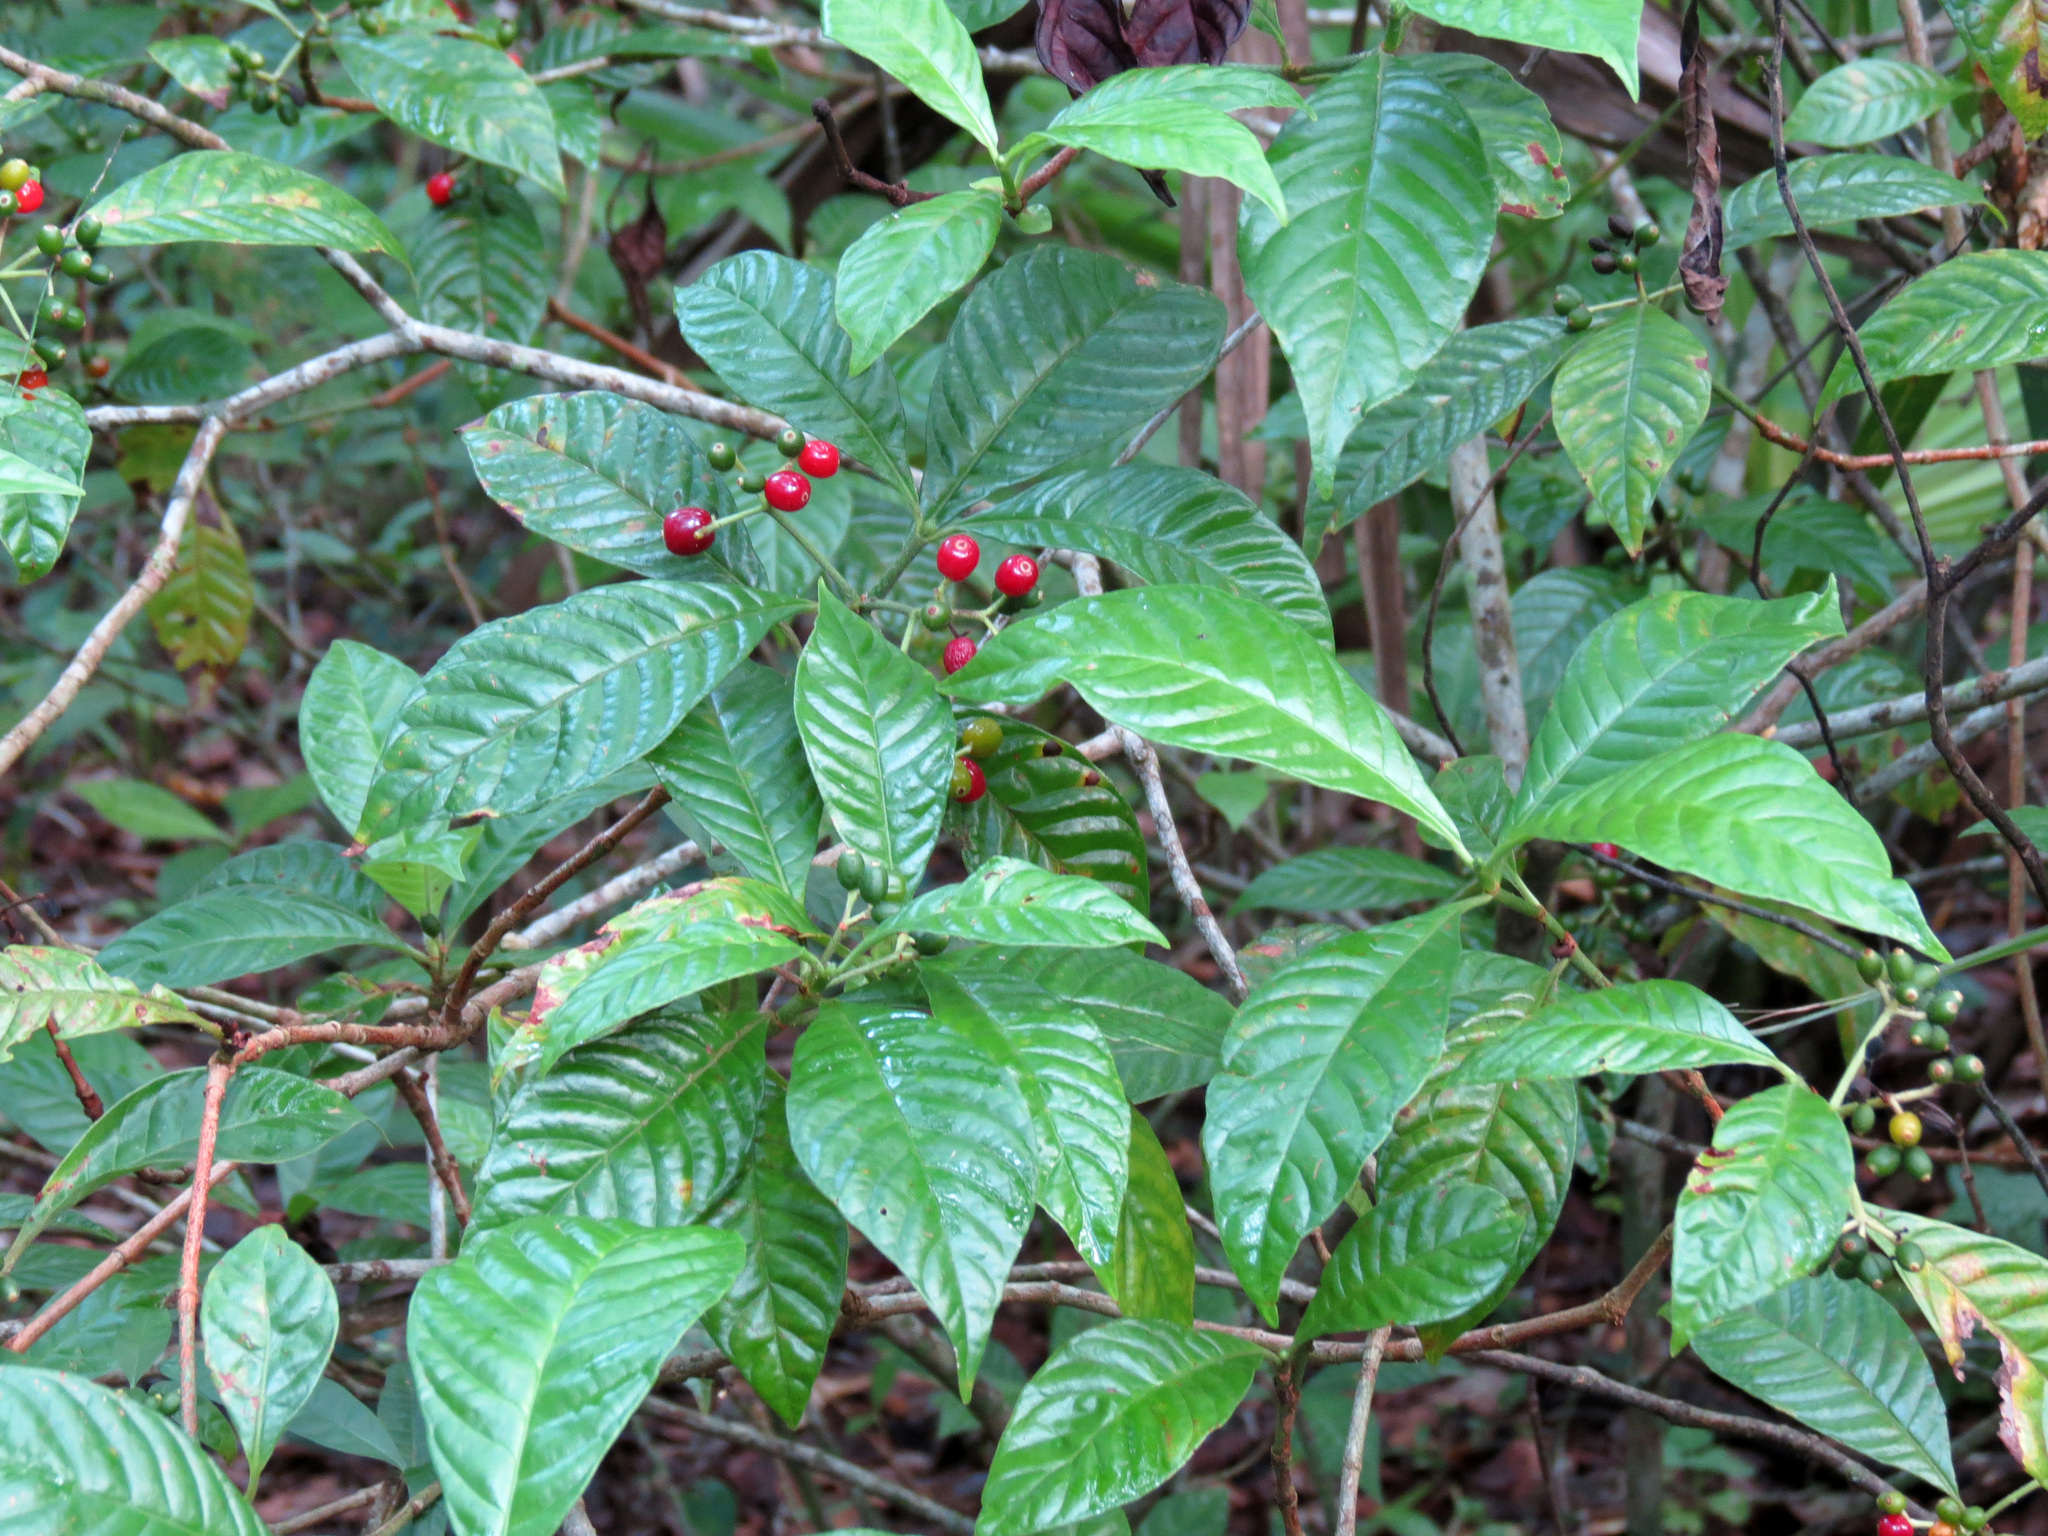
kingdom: Plantae
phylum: Tracheophyta
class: Magnoliopsida
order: Gentianales
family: Rubiaceae
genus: Psychotria
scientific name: Psychotria nervosa
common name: Bastard cankerberry
